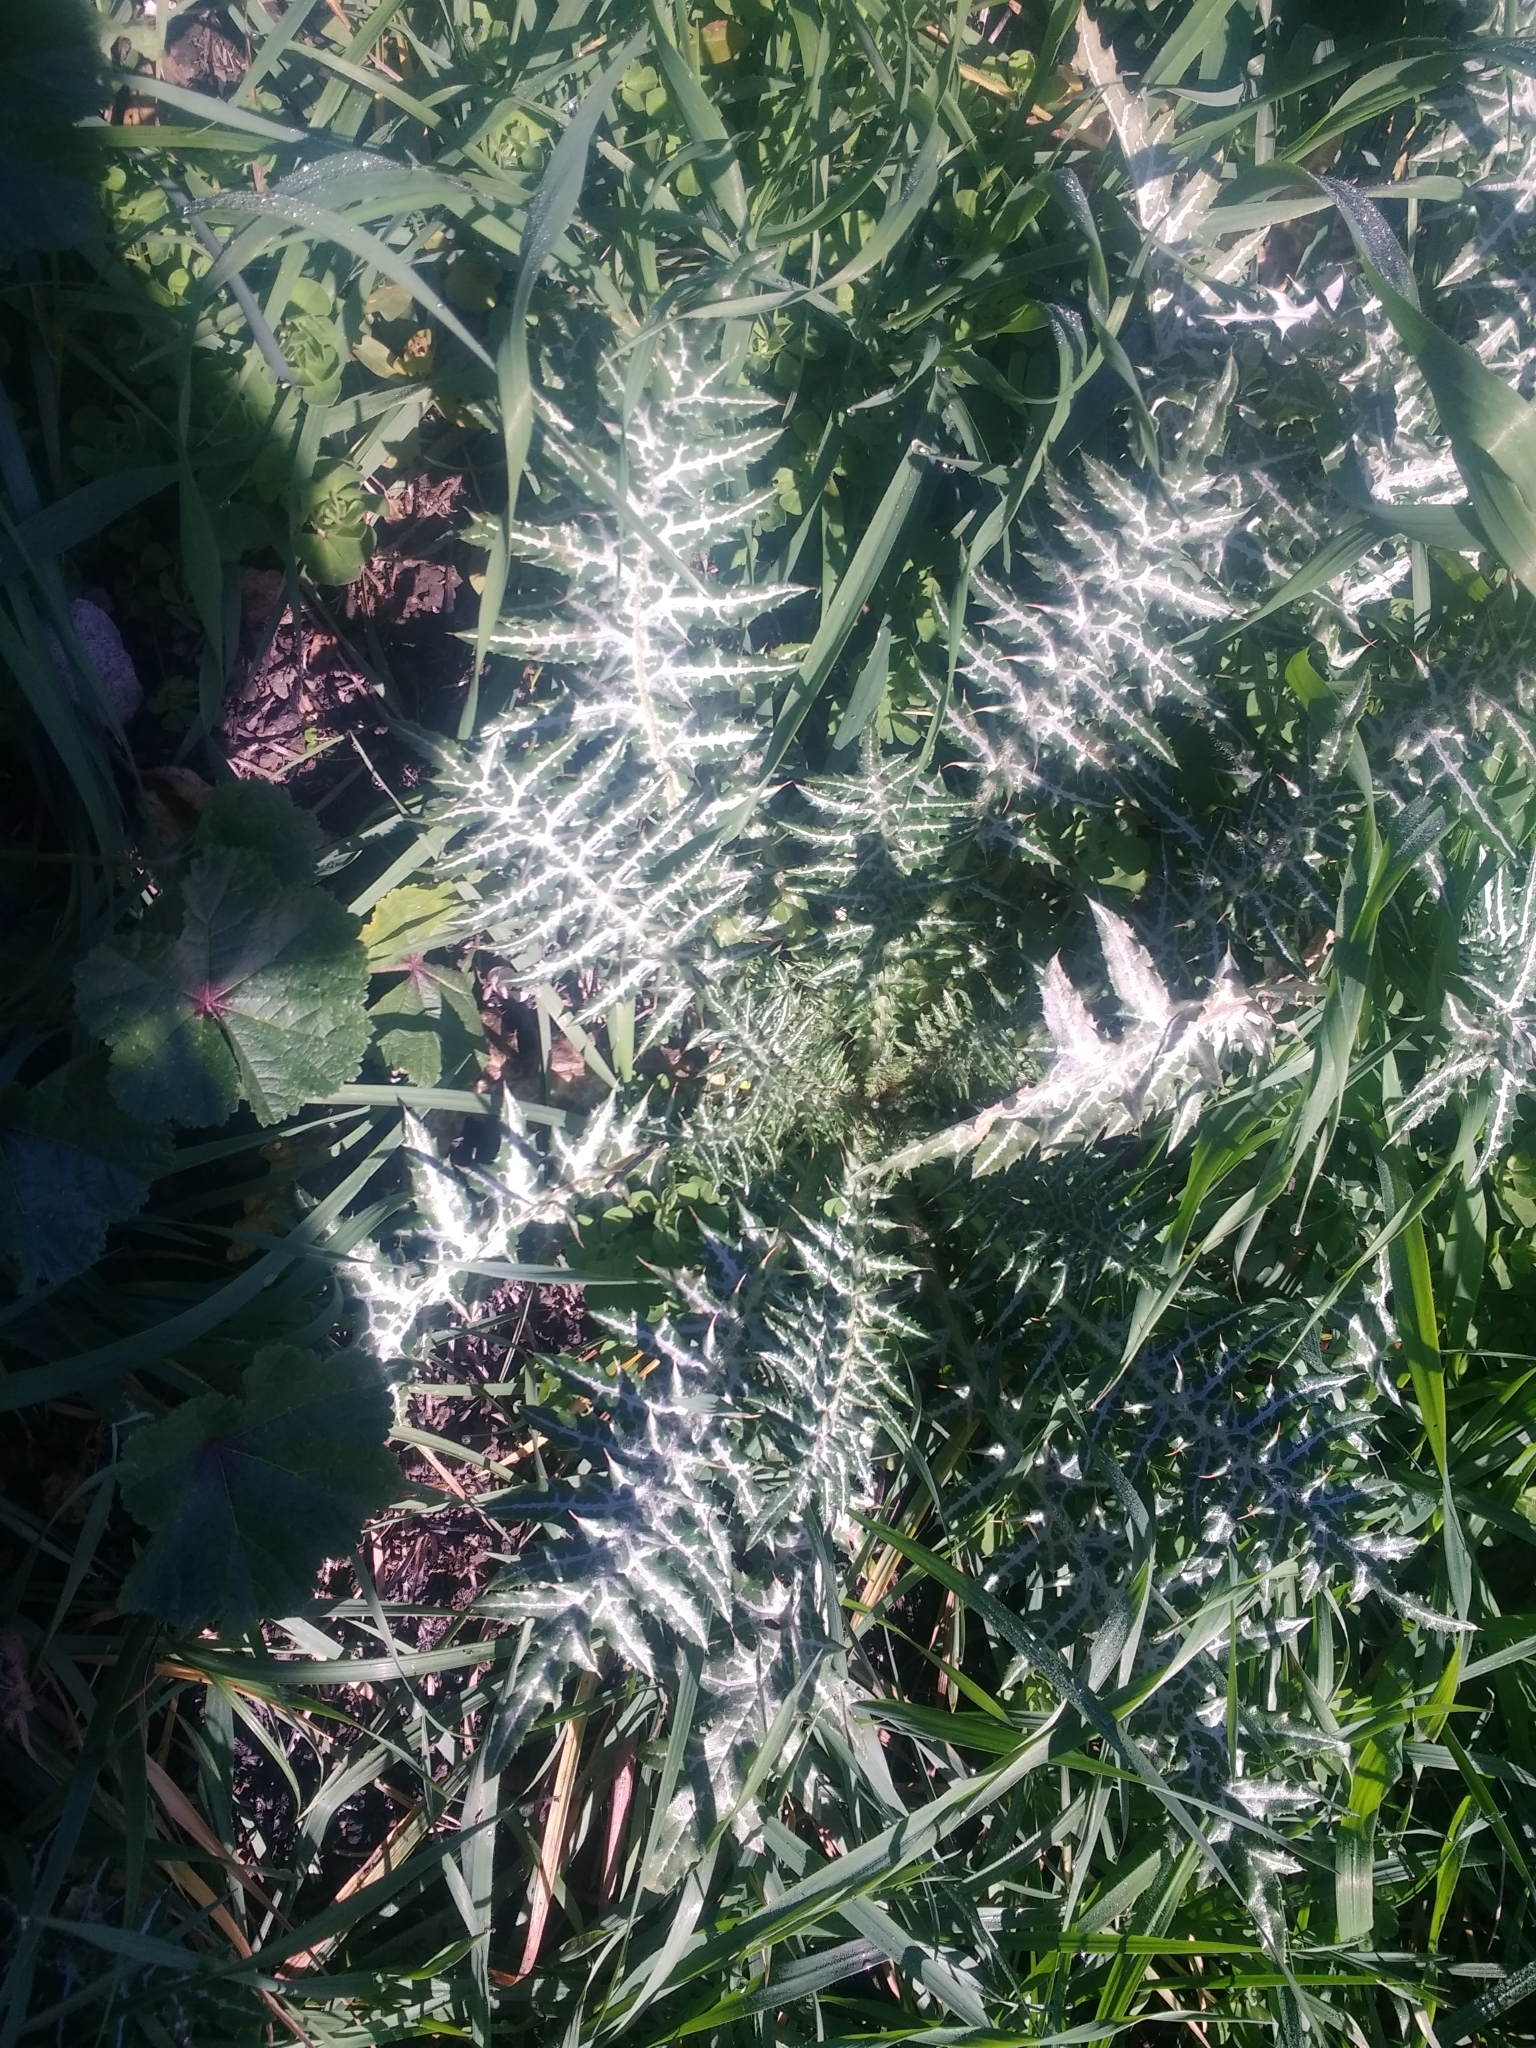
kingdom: Plantae
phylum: Tracheophyta
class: Magnoliopsida
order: Asterales
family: Asteraceae
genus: Galactites
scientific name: Galactites tomentosa
